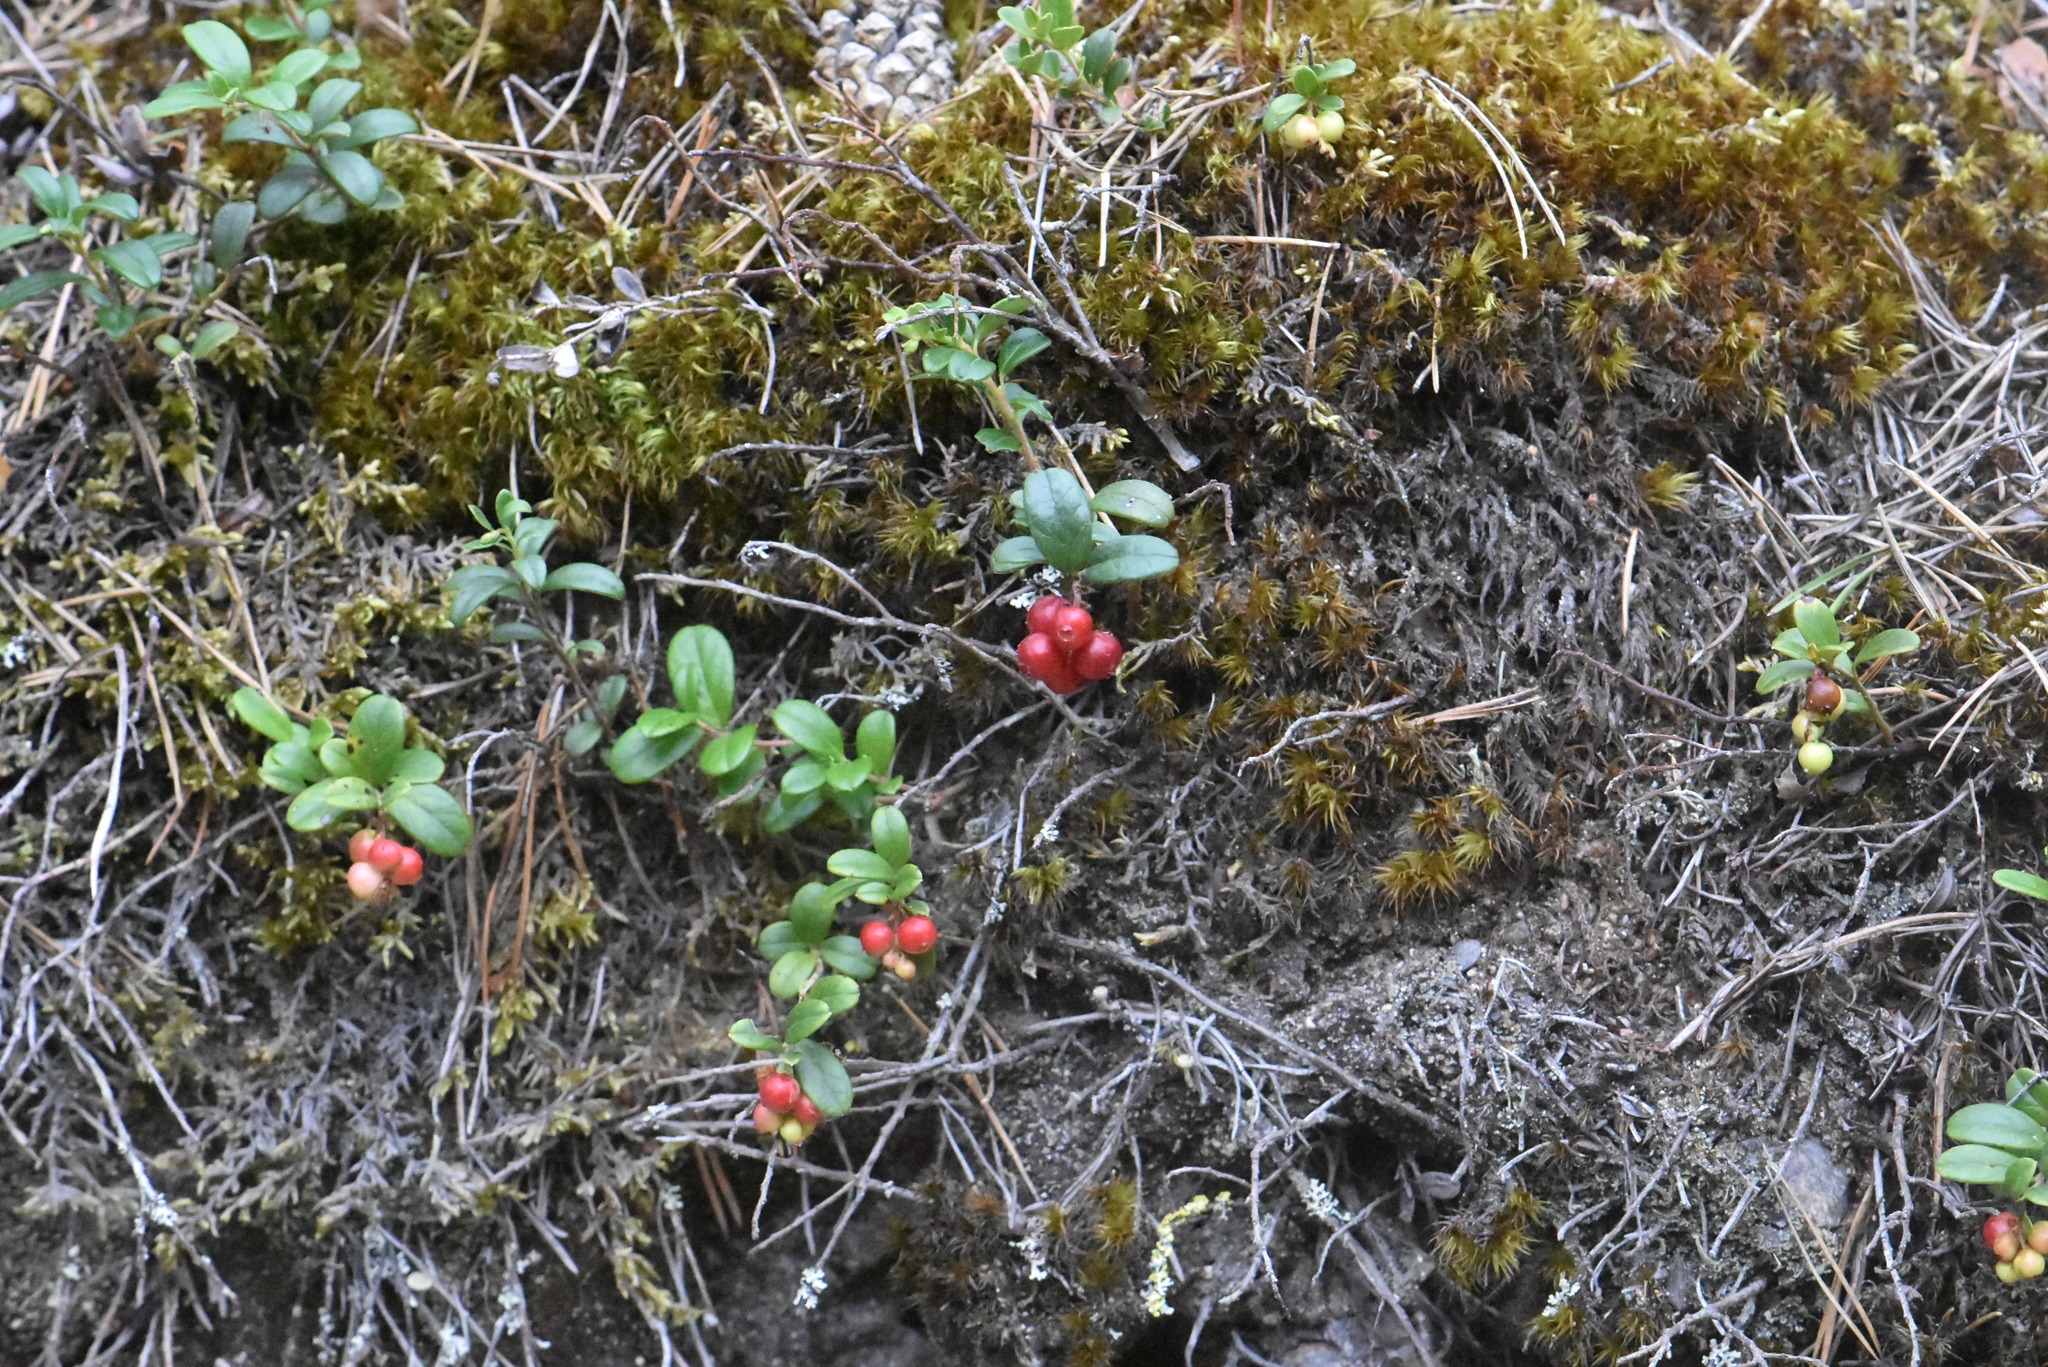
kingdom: Plantae
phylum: Tracheophyta
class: Magnoliopsida
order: Ericales
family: Ericaceae
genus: Vaccinium
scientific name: Vaccinium vitis-idaea
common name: Cowberry
